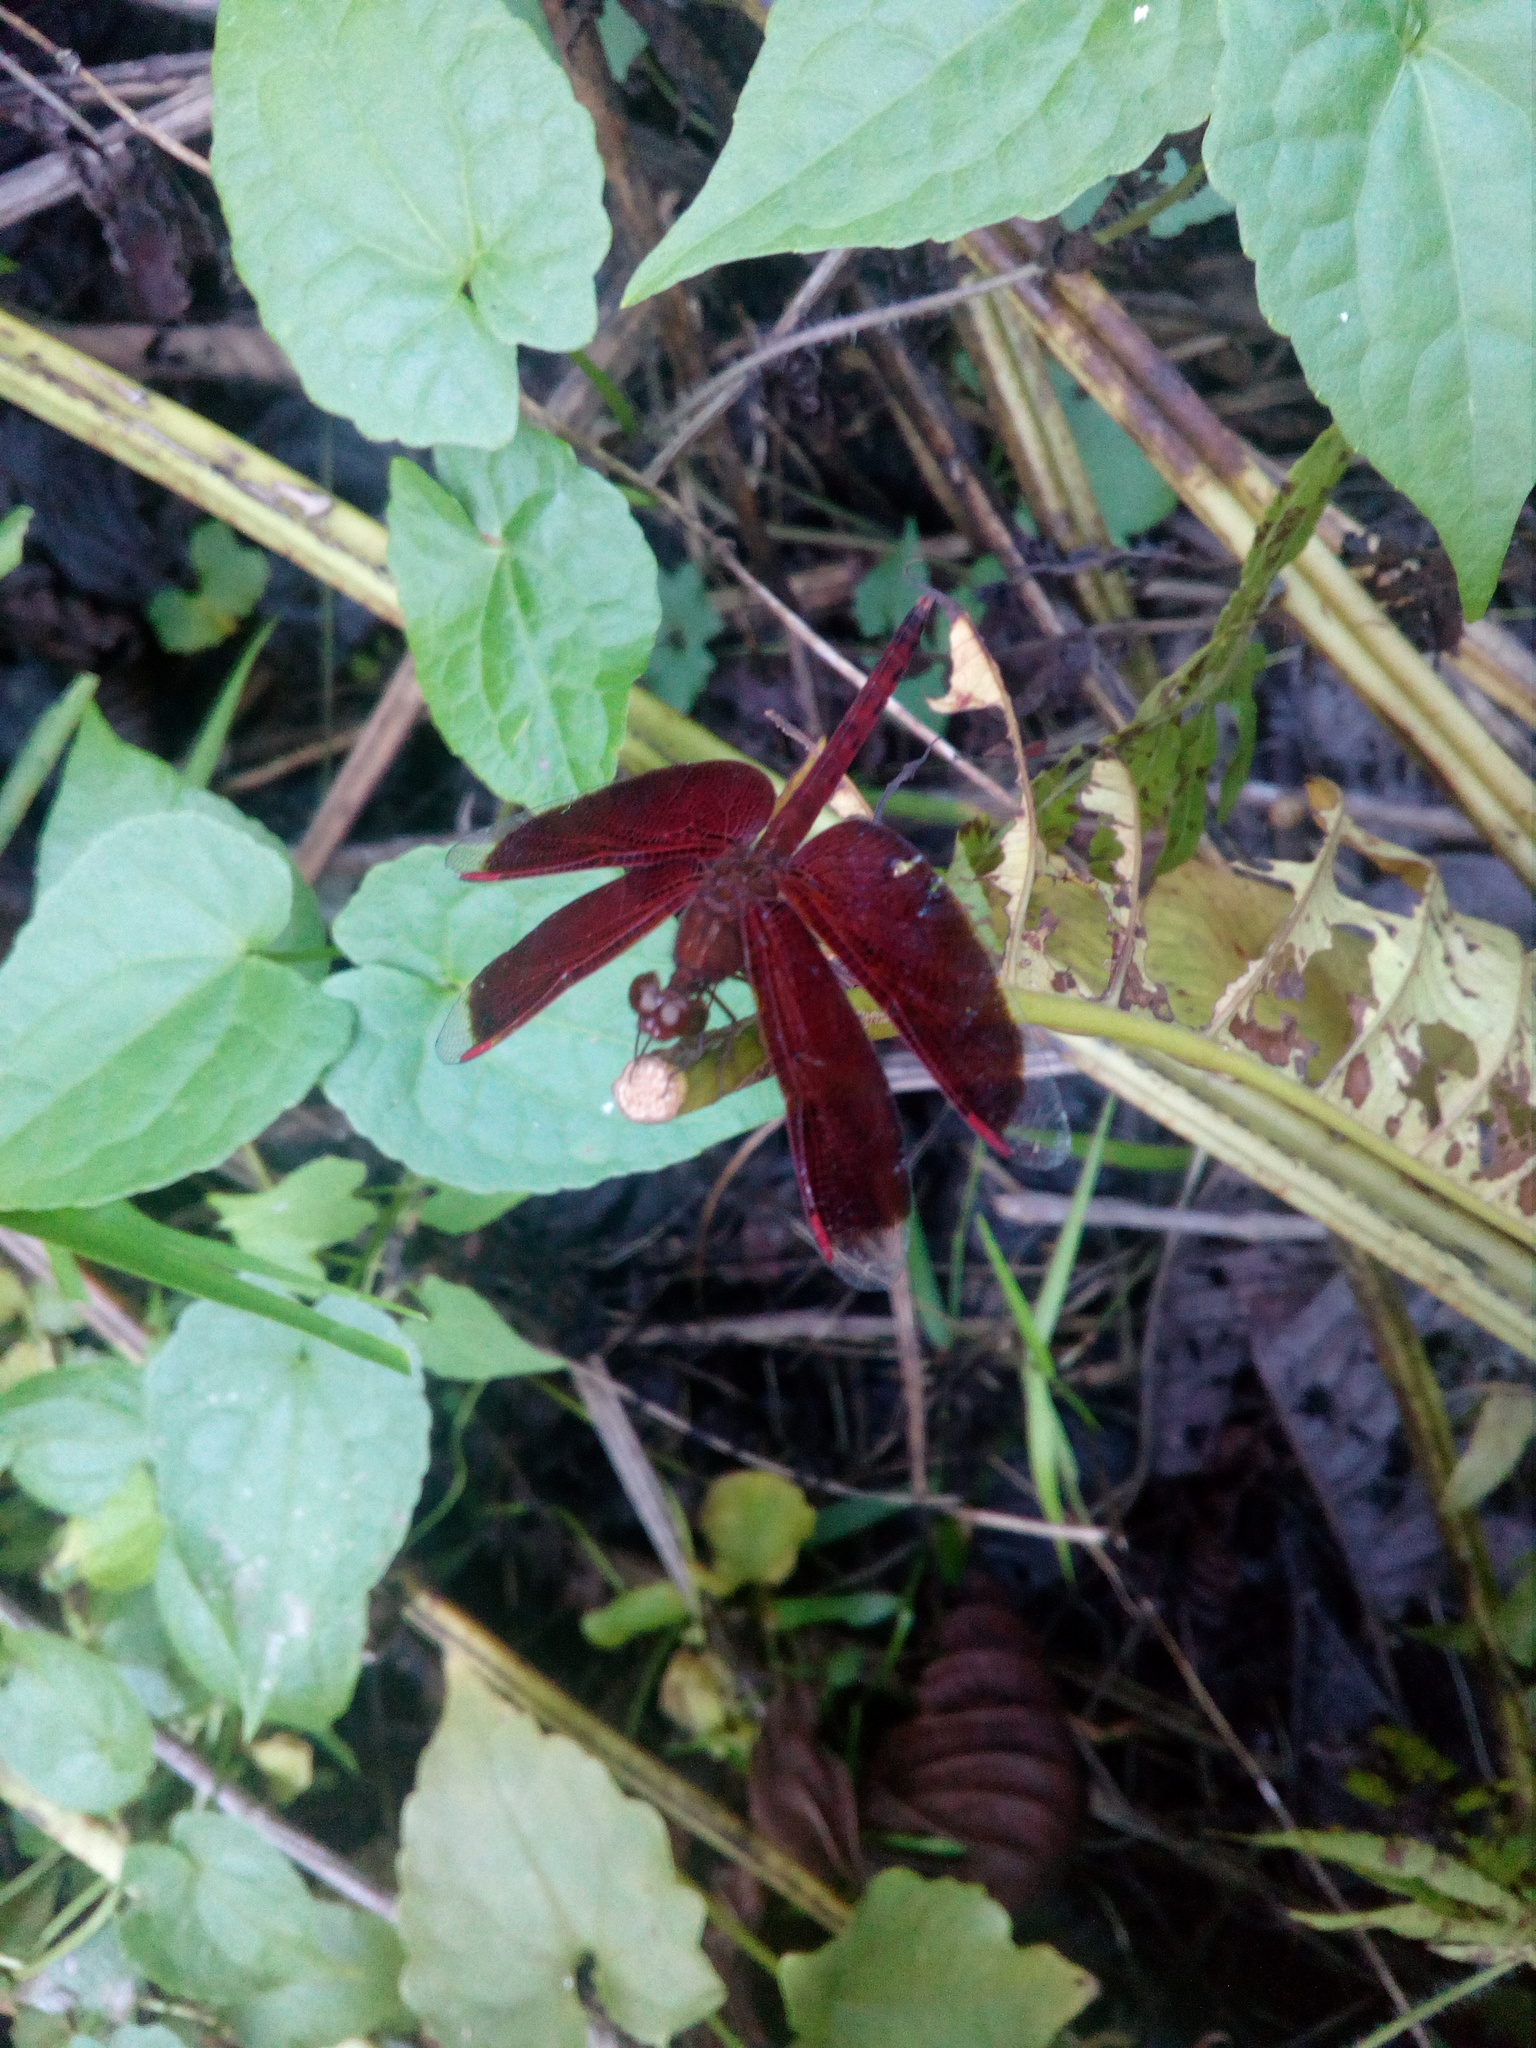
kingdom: Animalia
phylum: Arthropoda
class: Insecta
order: Odonata
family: Libellulidae
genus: Neurothemis
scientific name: Neurothemis fluctuans
